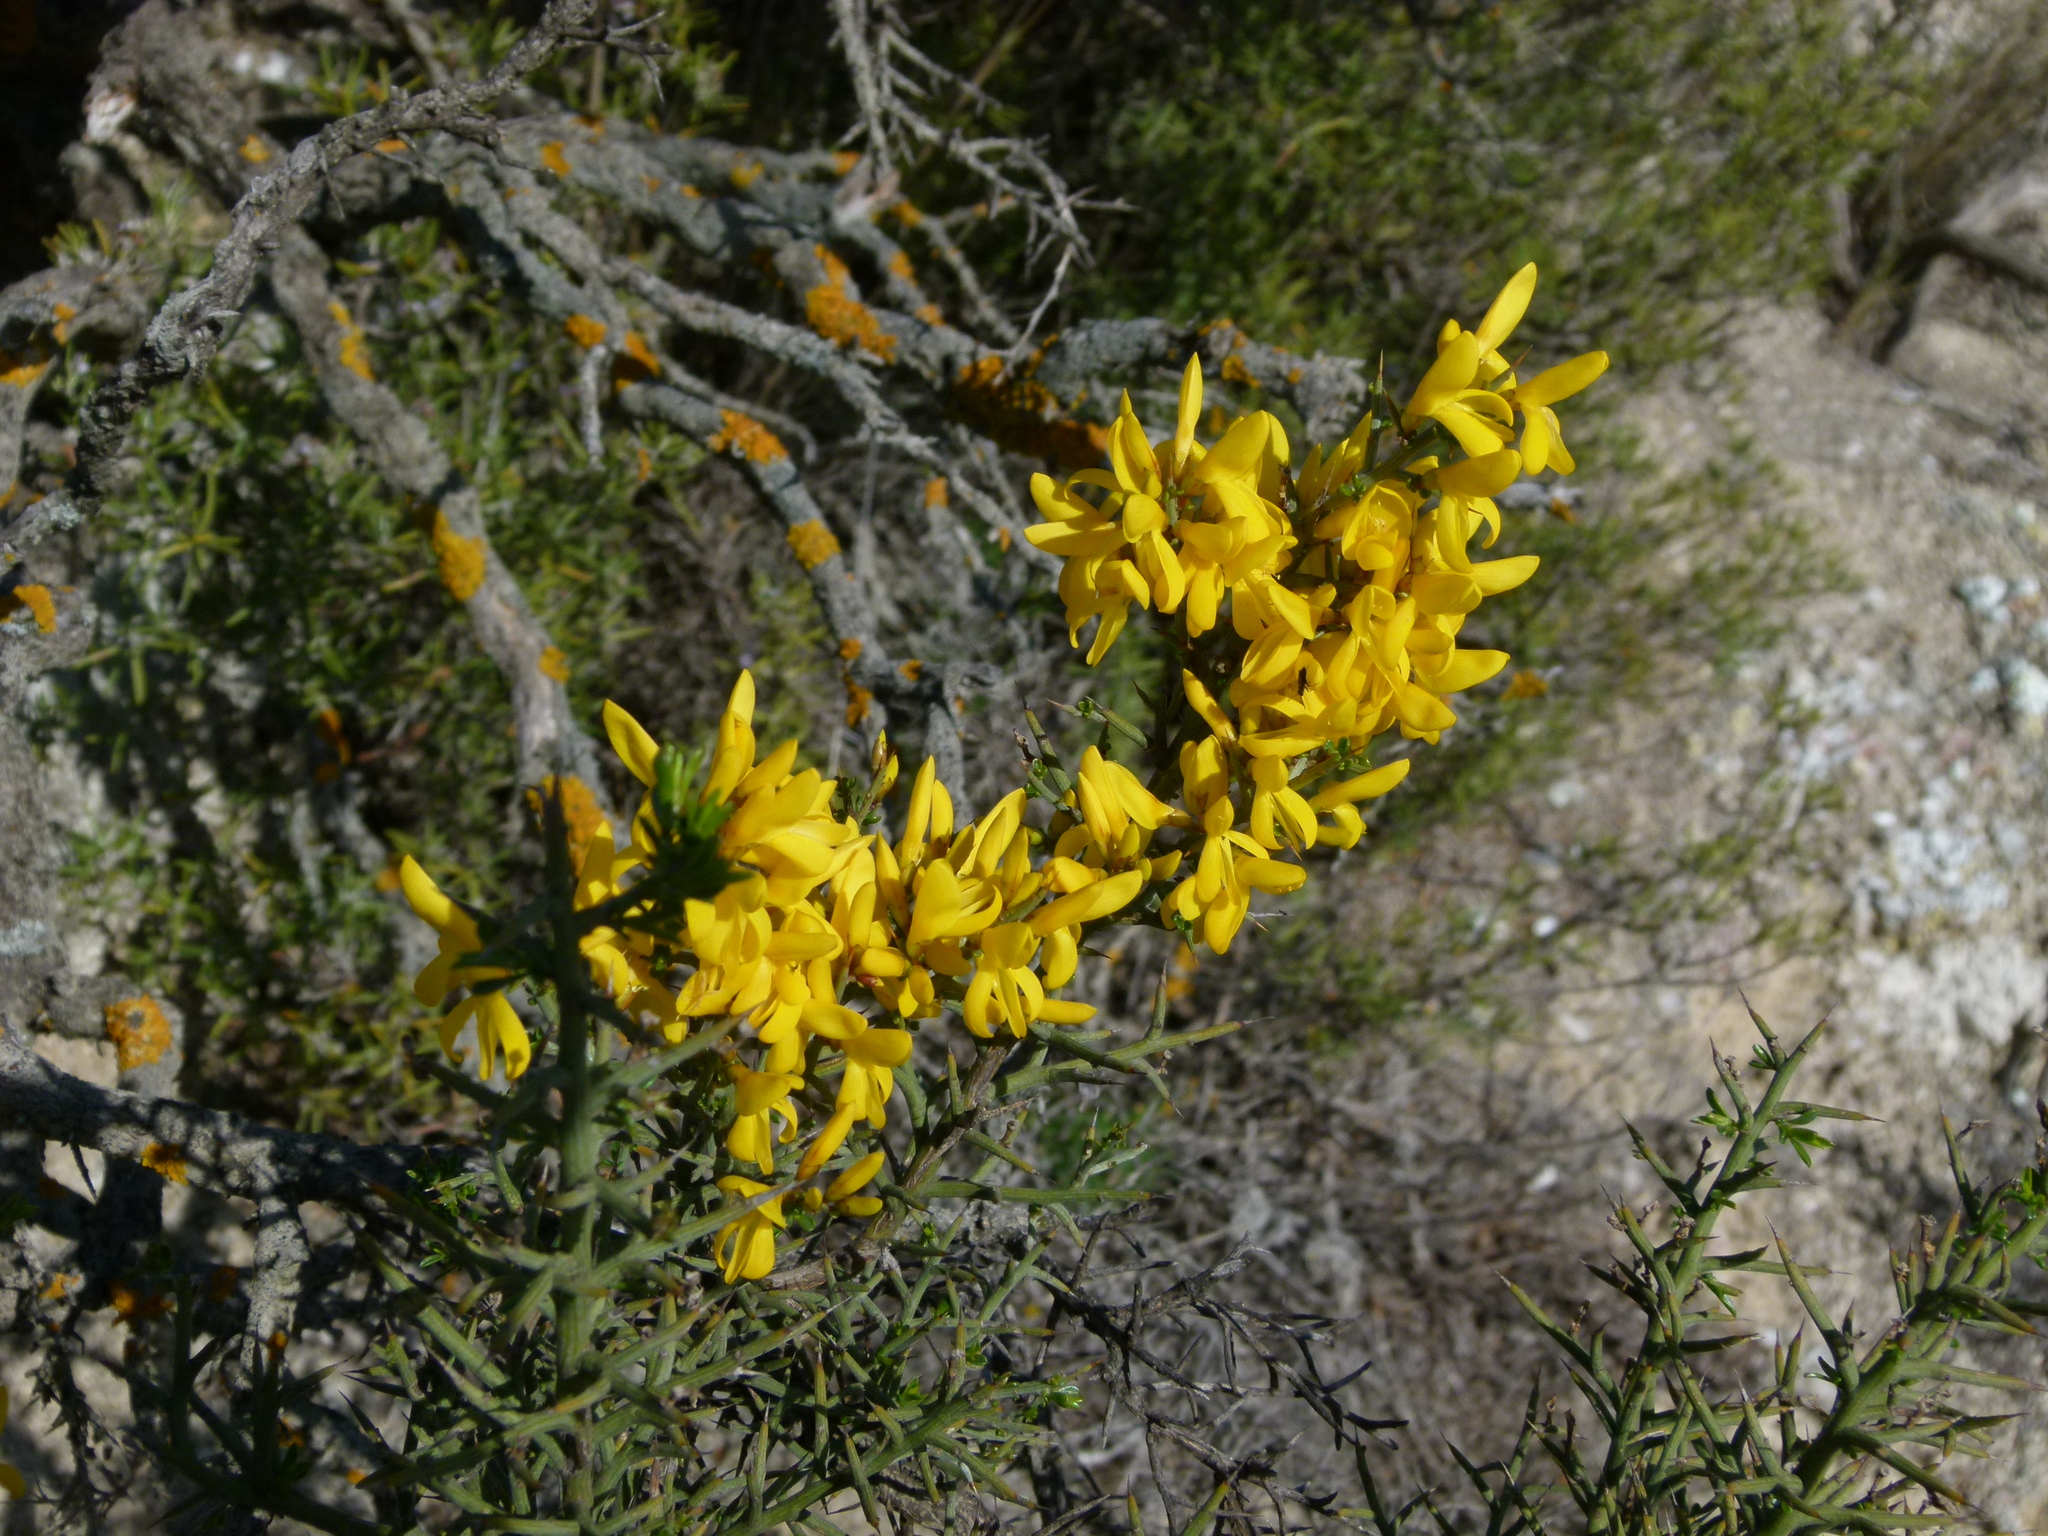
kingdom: Plantae
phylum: Tracheophyta
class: Magnoliopsida
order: Fabales
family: Fabaceae
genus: Genista
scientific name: Genista scorpius
